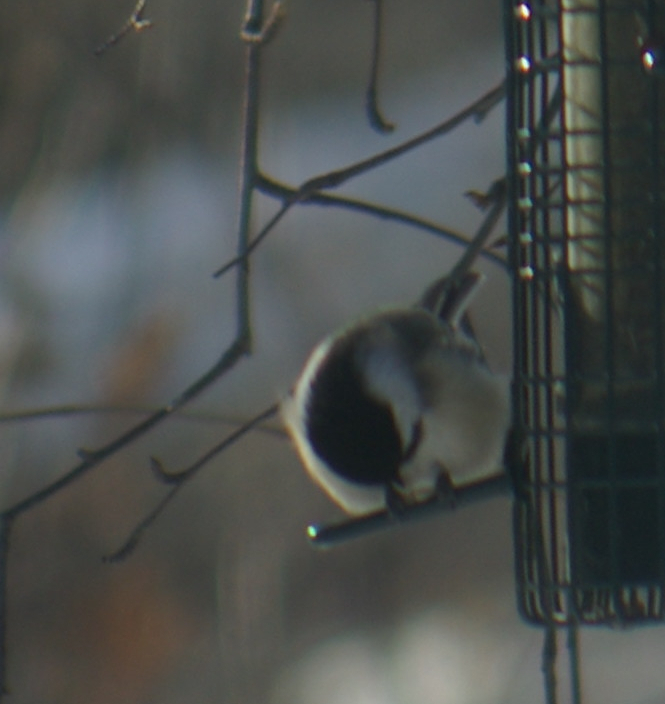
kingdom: Animalia
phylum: Chordata
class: Aves
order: Passeriformes
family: Paridae
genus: Poecile
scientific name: Poecile atricapillus
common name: Black-capped chickadee
